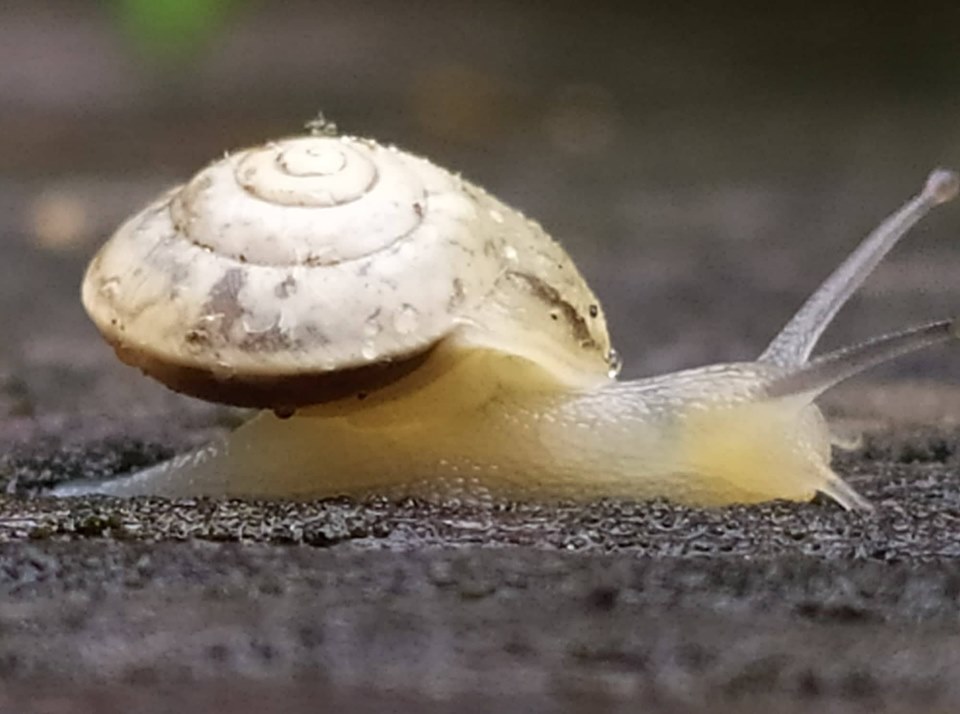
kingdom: Animalia
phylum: Mollusca
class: Gastropoda
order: Stylommatophora
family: Hygromiidae
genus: Hygromia
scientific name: Hygromia cinctella
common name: Girdled snail
